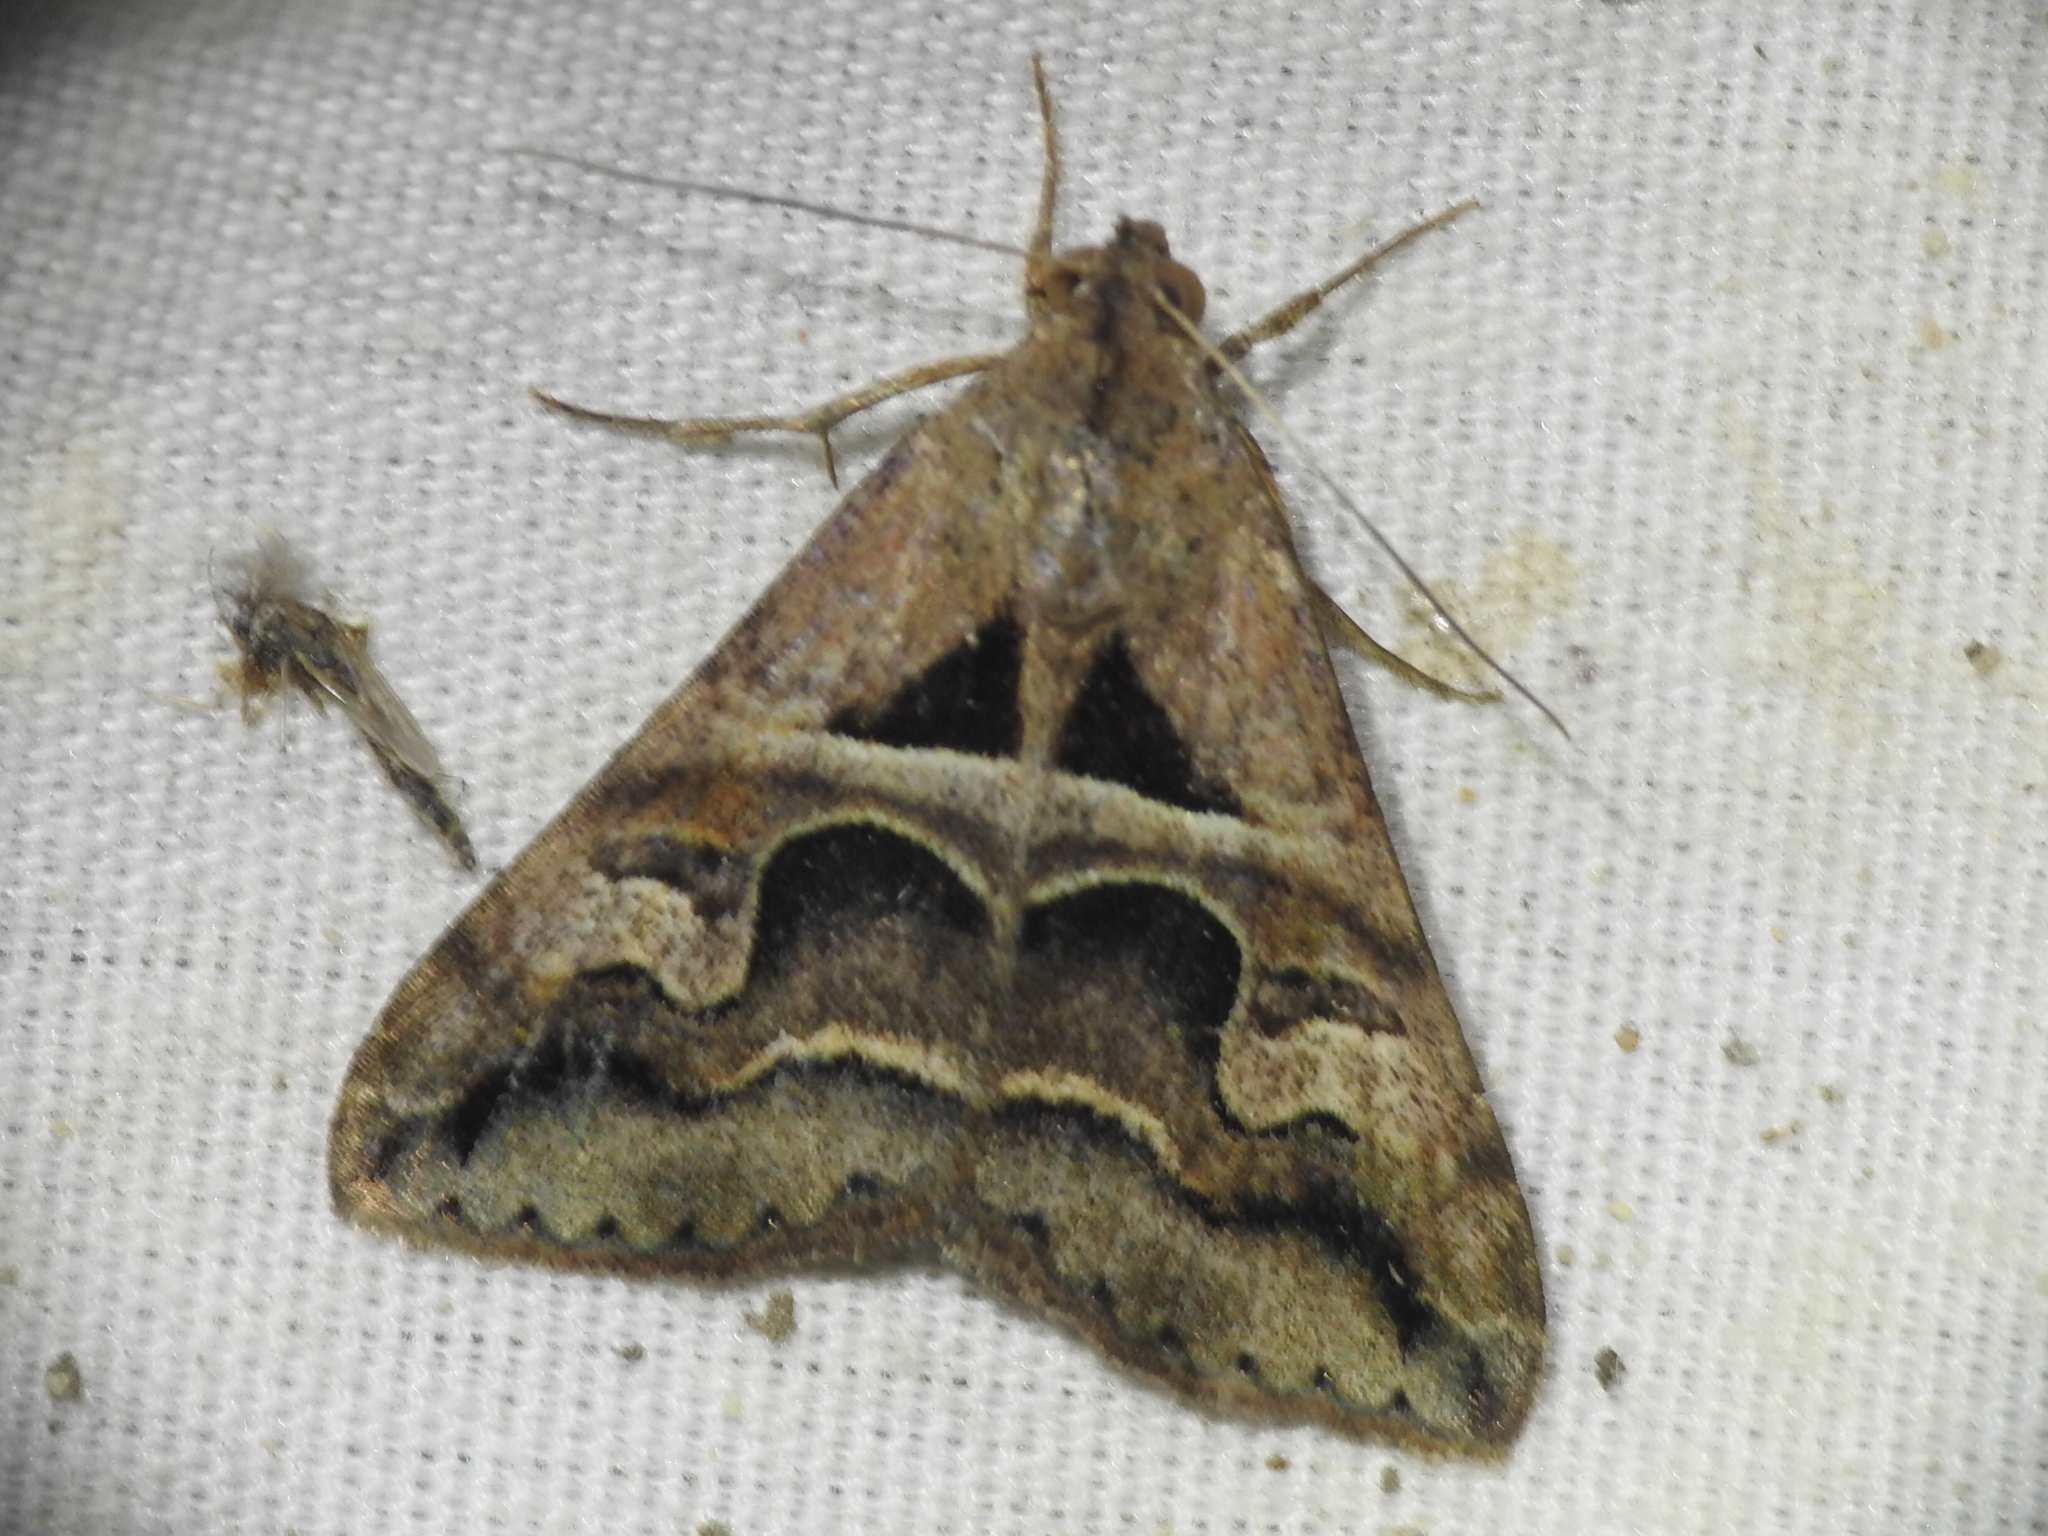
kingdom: Animalia
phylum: Arthropoda
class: Insecta
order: Lepidoptera
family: Erebidae
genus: Melipotis
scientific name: Melipotis cellaris
